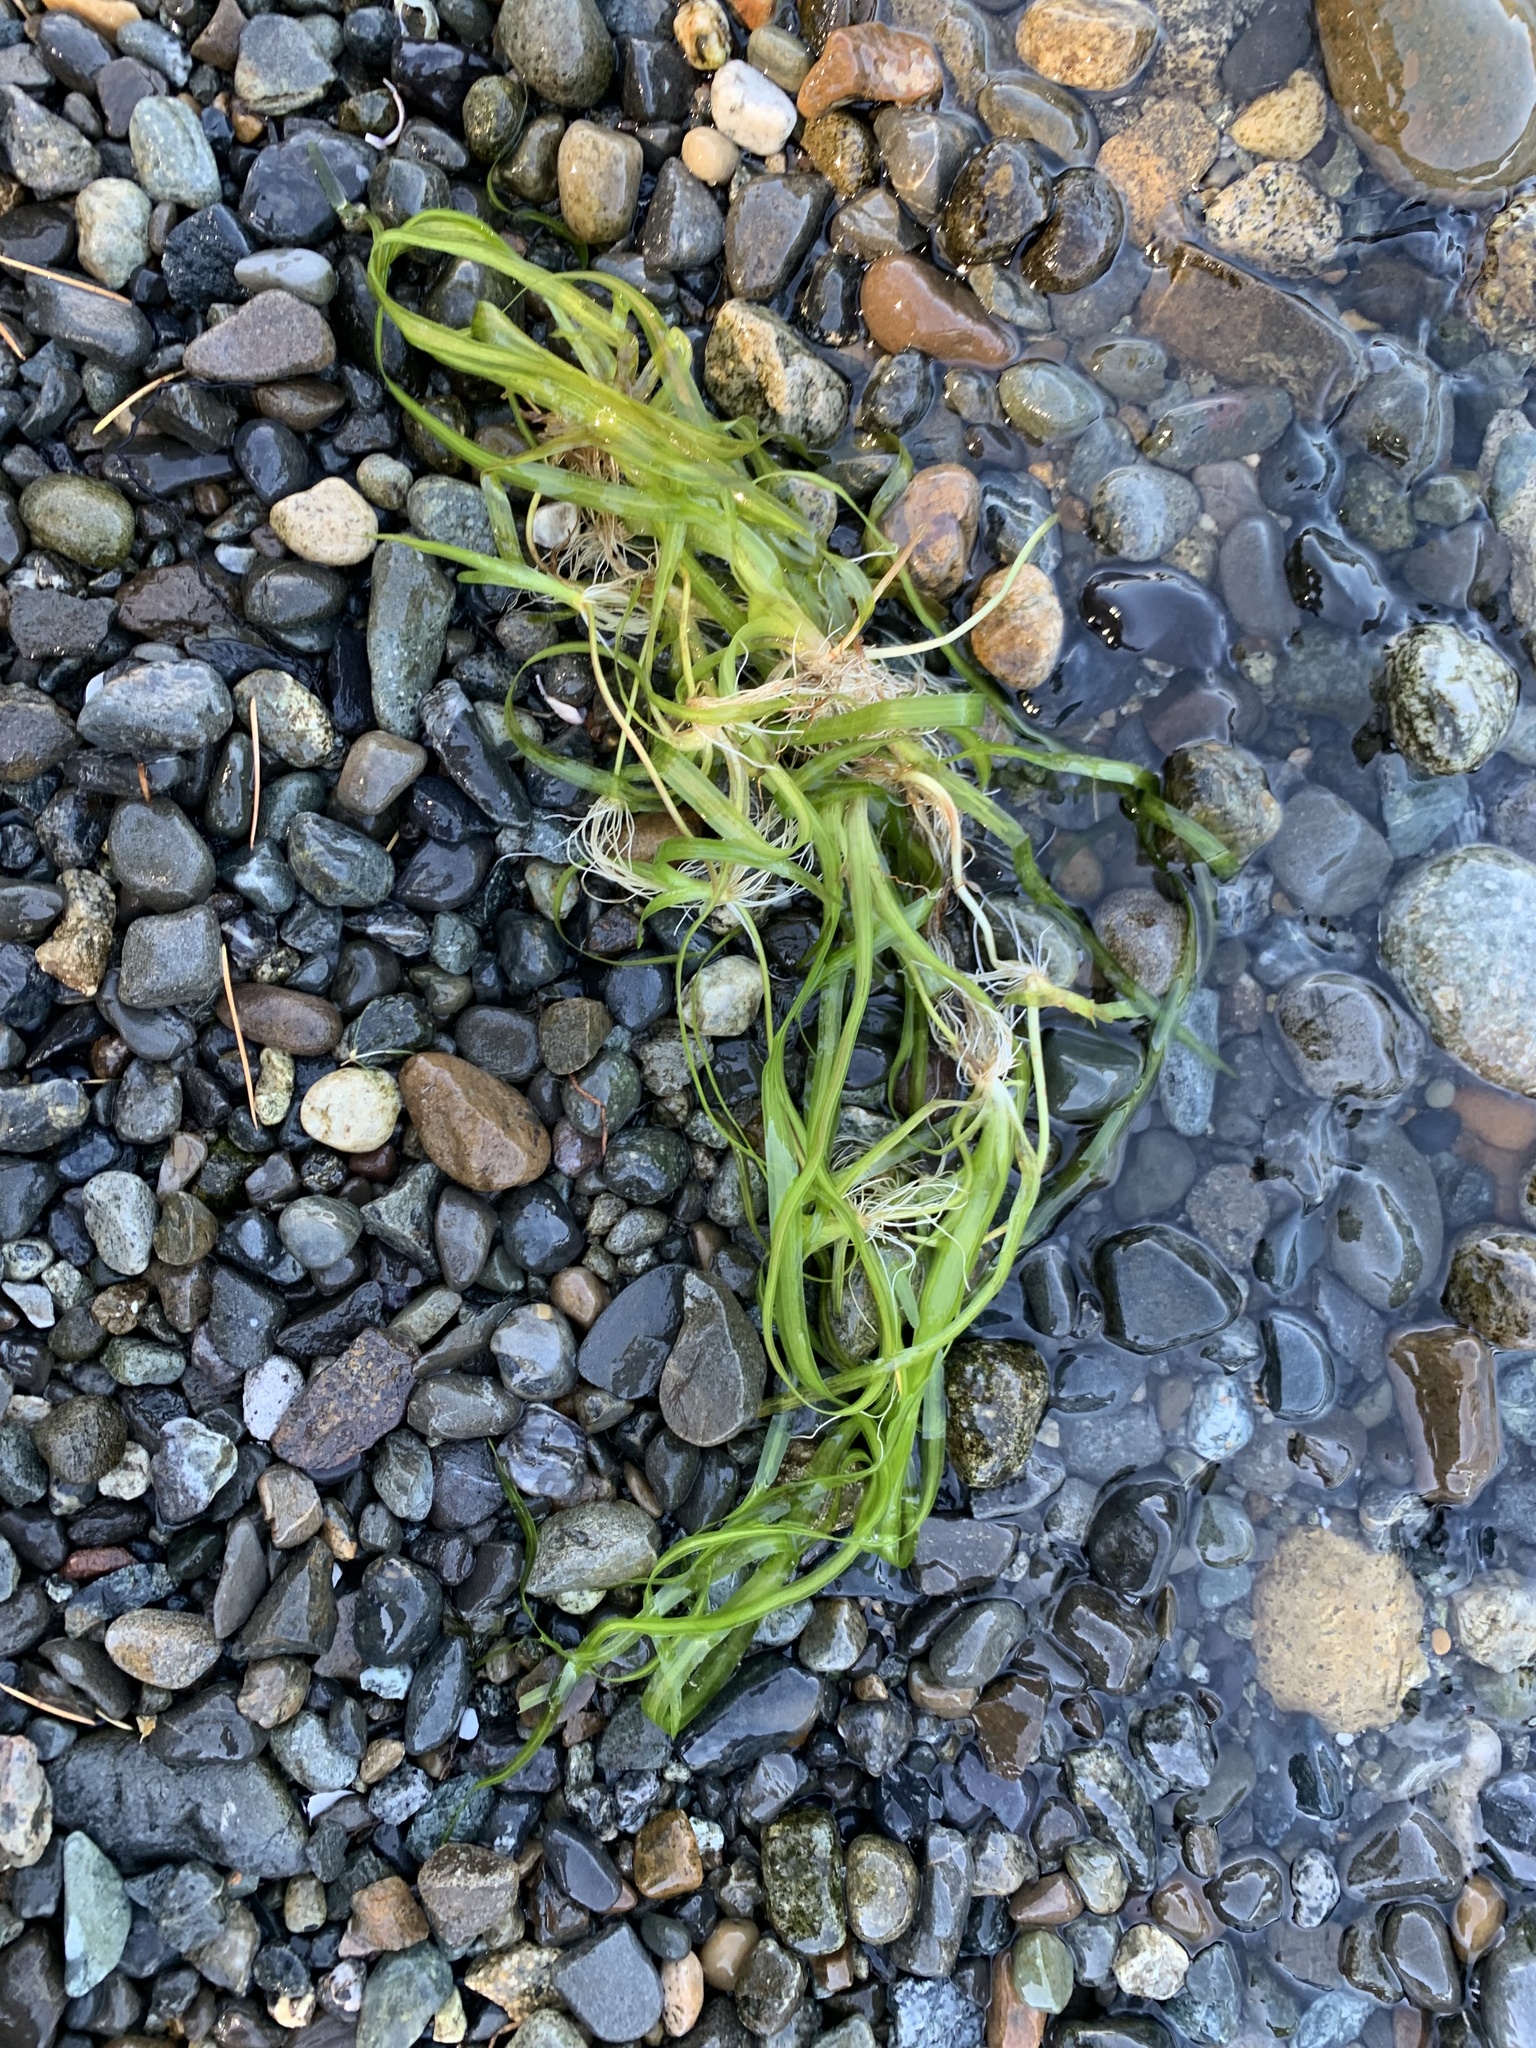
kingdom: Plantae
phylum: Tracheophyta
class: Liliopsida
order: Alismatales
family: Hydrocharitaceae
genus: Vallisneria
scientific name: Vallisneria americana
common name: American eelgrass
